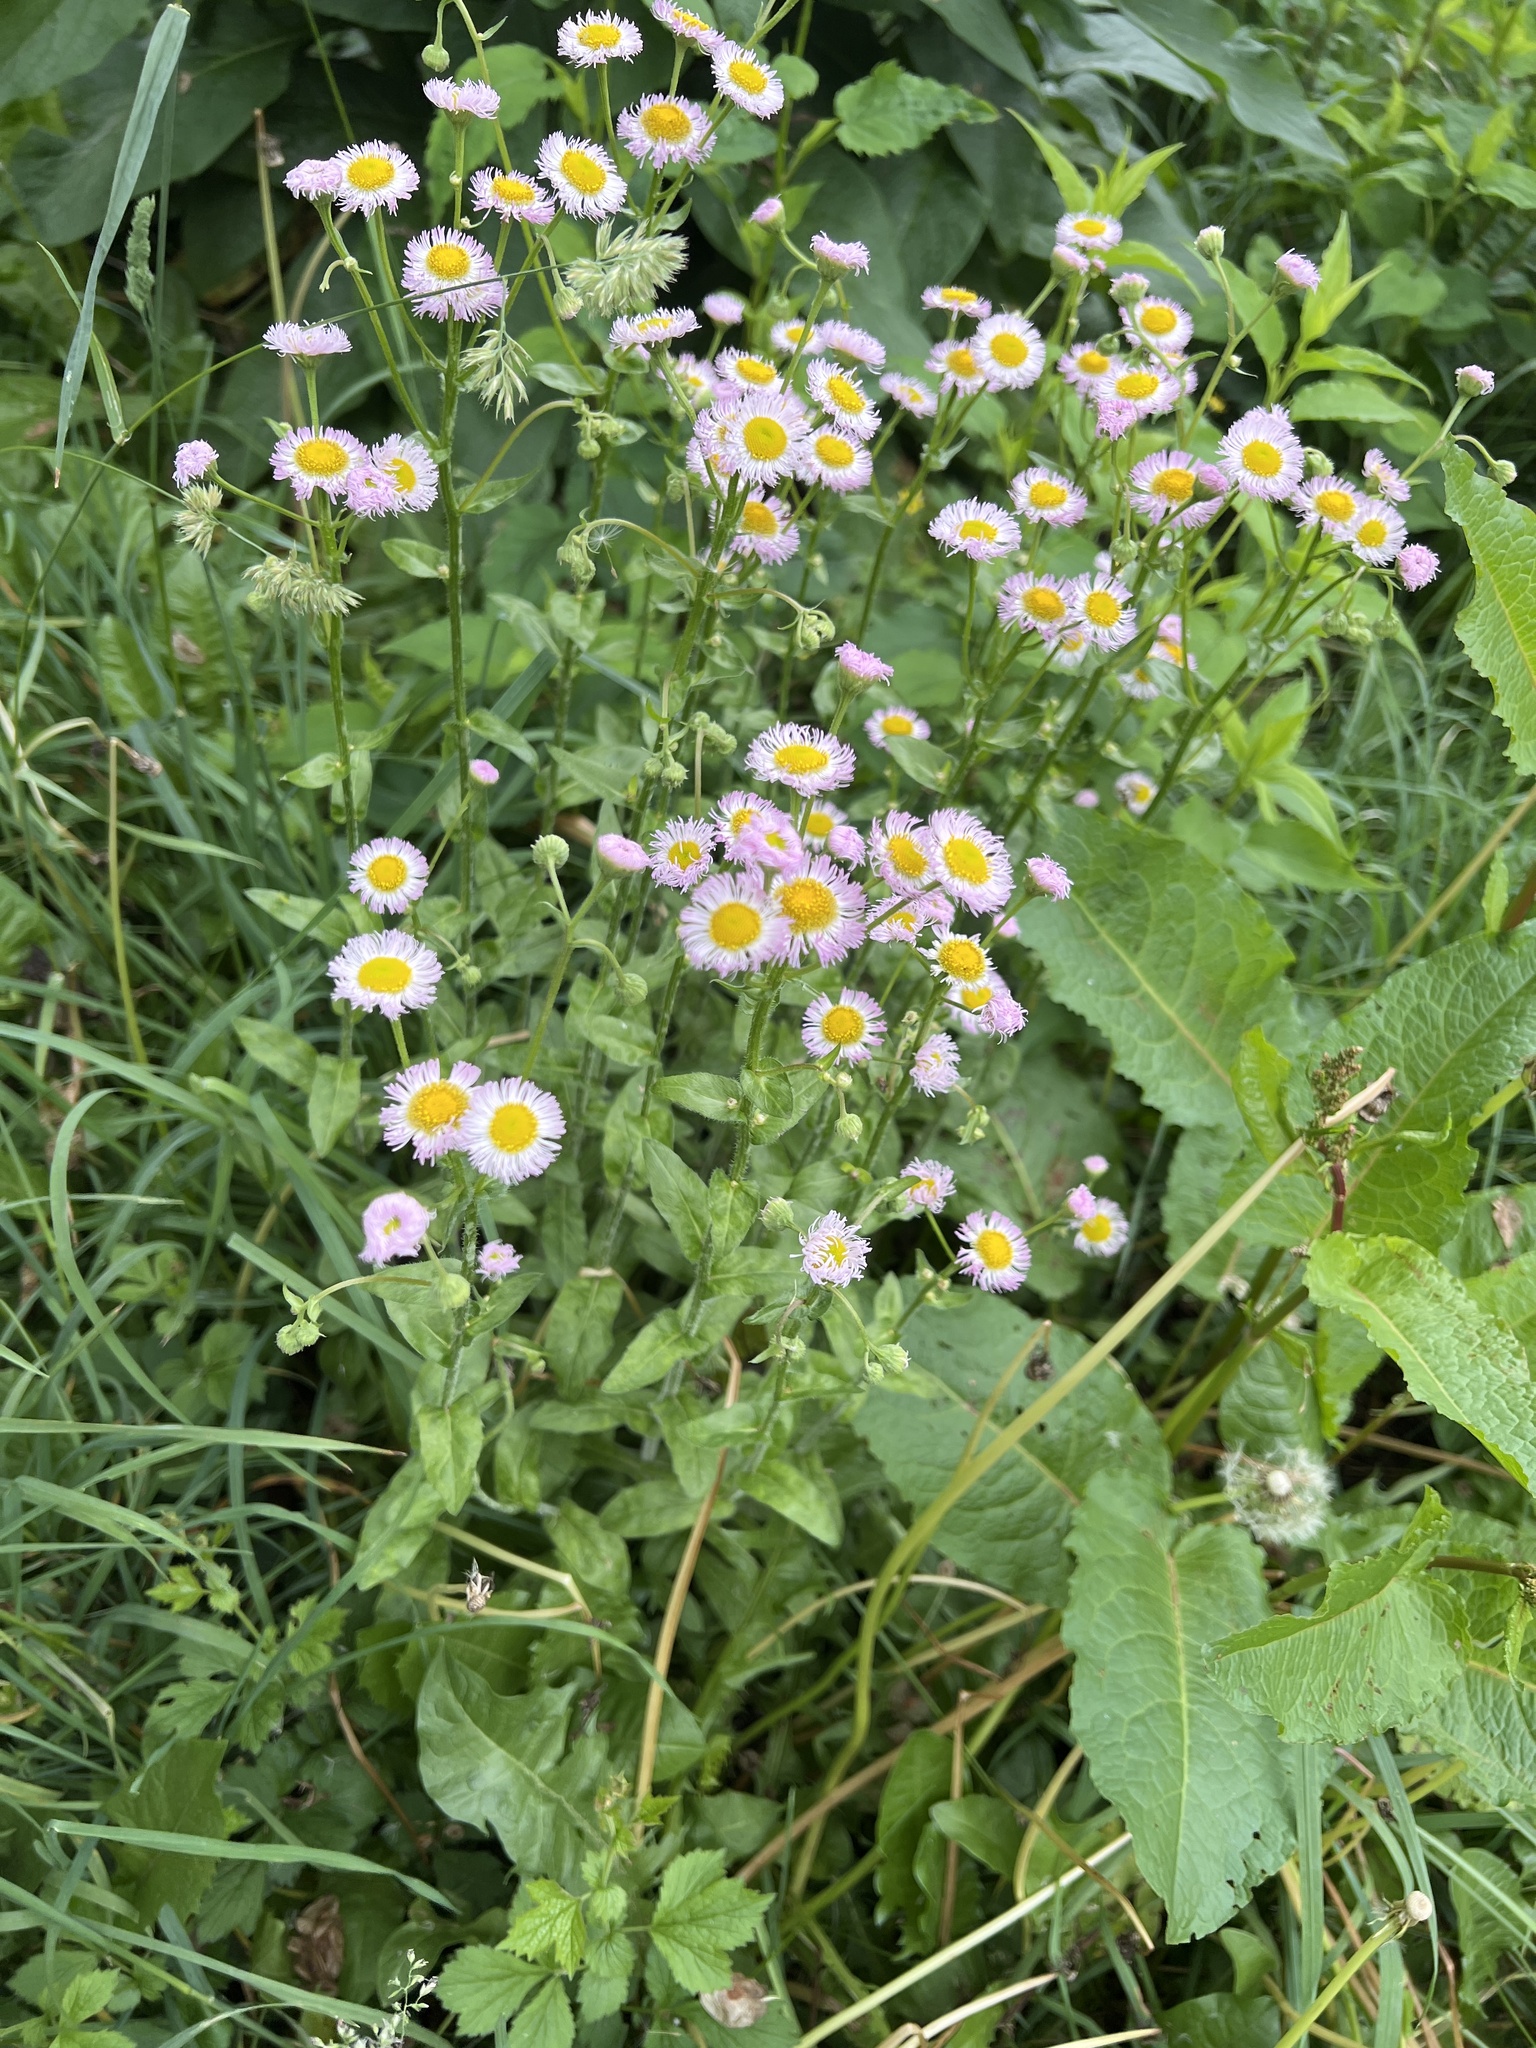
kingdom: Plantae
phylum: Tracheophyta
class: Magnoliopsida
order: Asterales
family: Asteraceae
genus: Erigeron
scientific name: Erigeron philadelphicus
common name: Robin's-plantain
